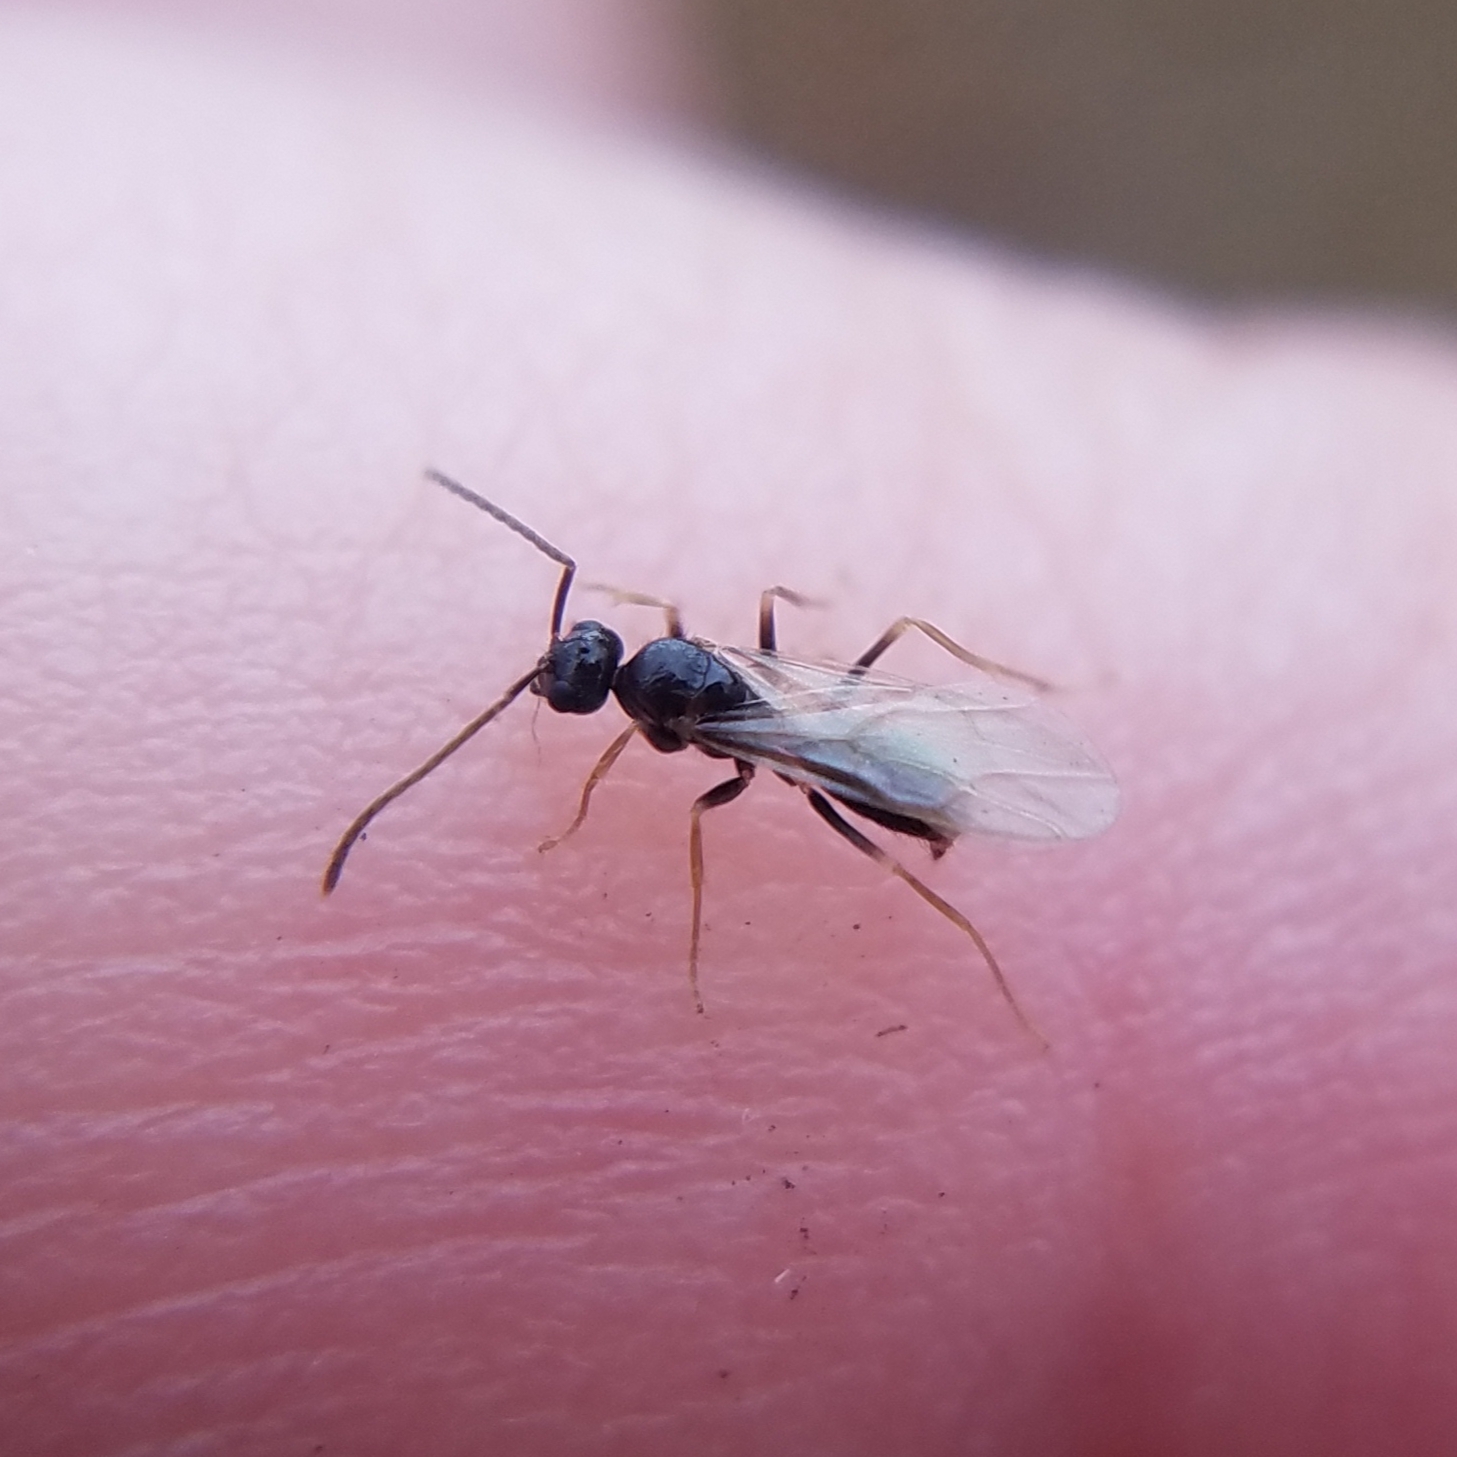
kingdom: Animalia
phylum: Arthropoda
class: Insecta
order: Hymenoptera
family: Formicidae
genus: Prenolepis
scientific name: Prenolepis imparis
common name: Small honey ant
